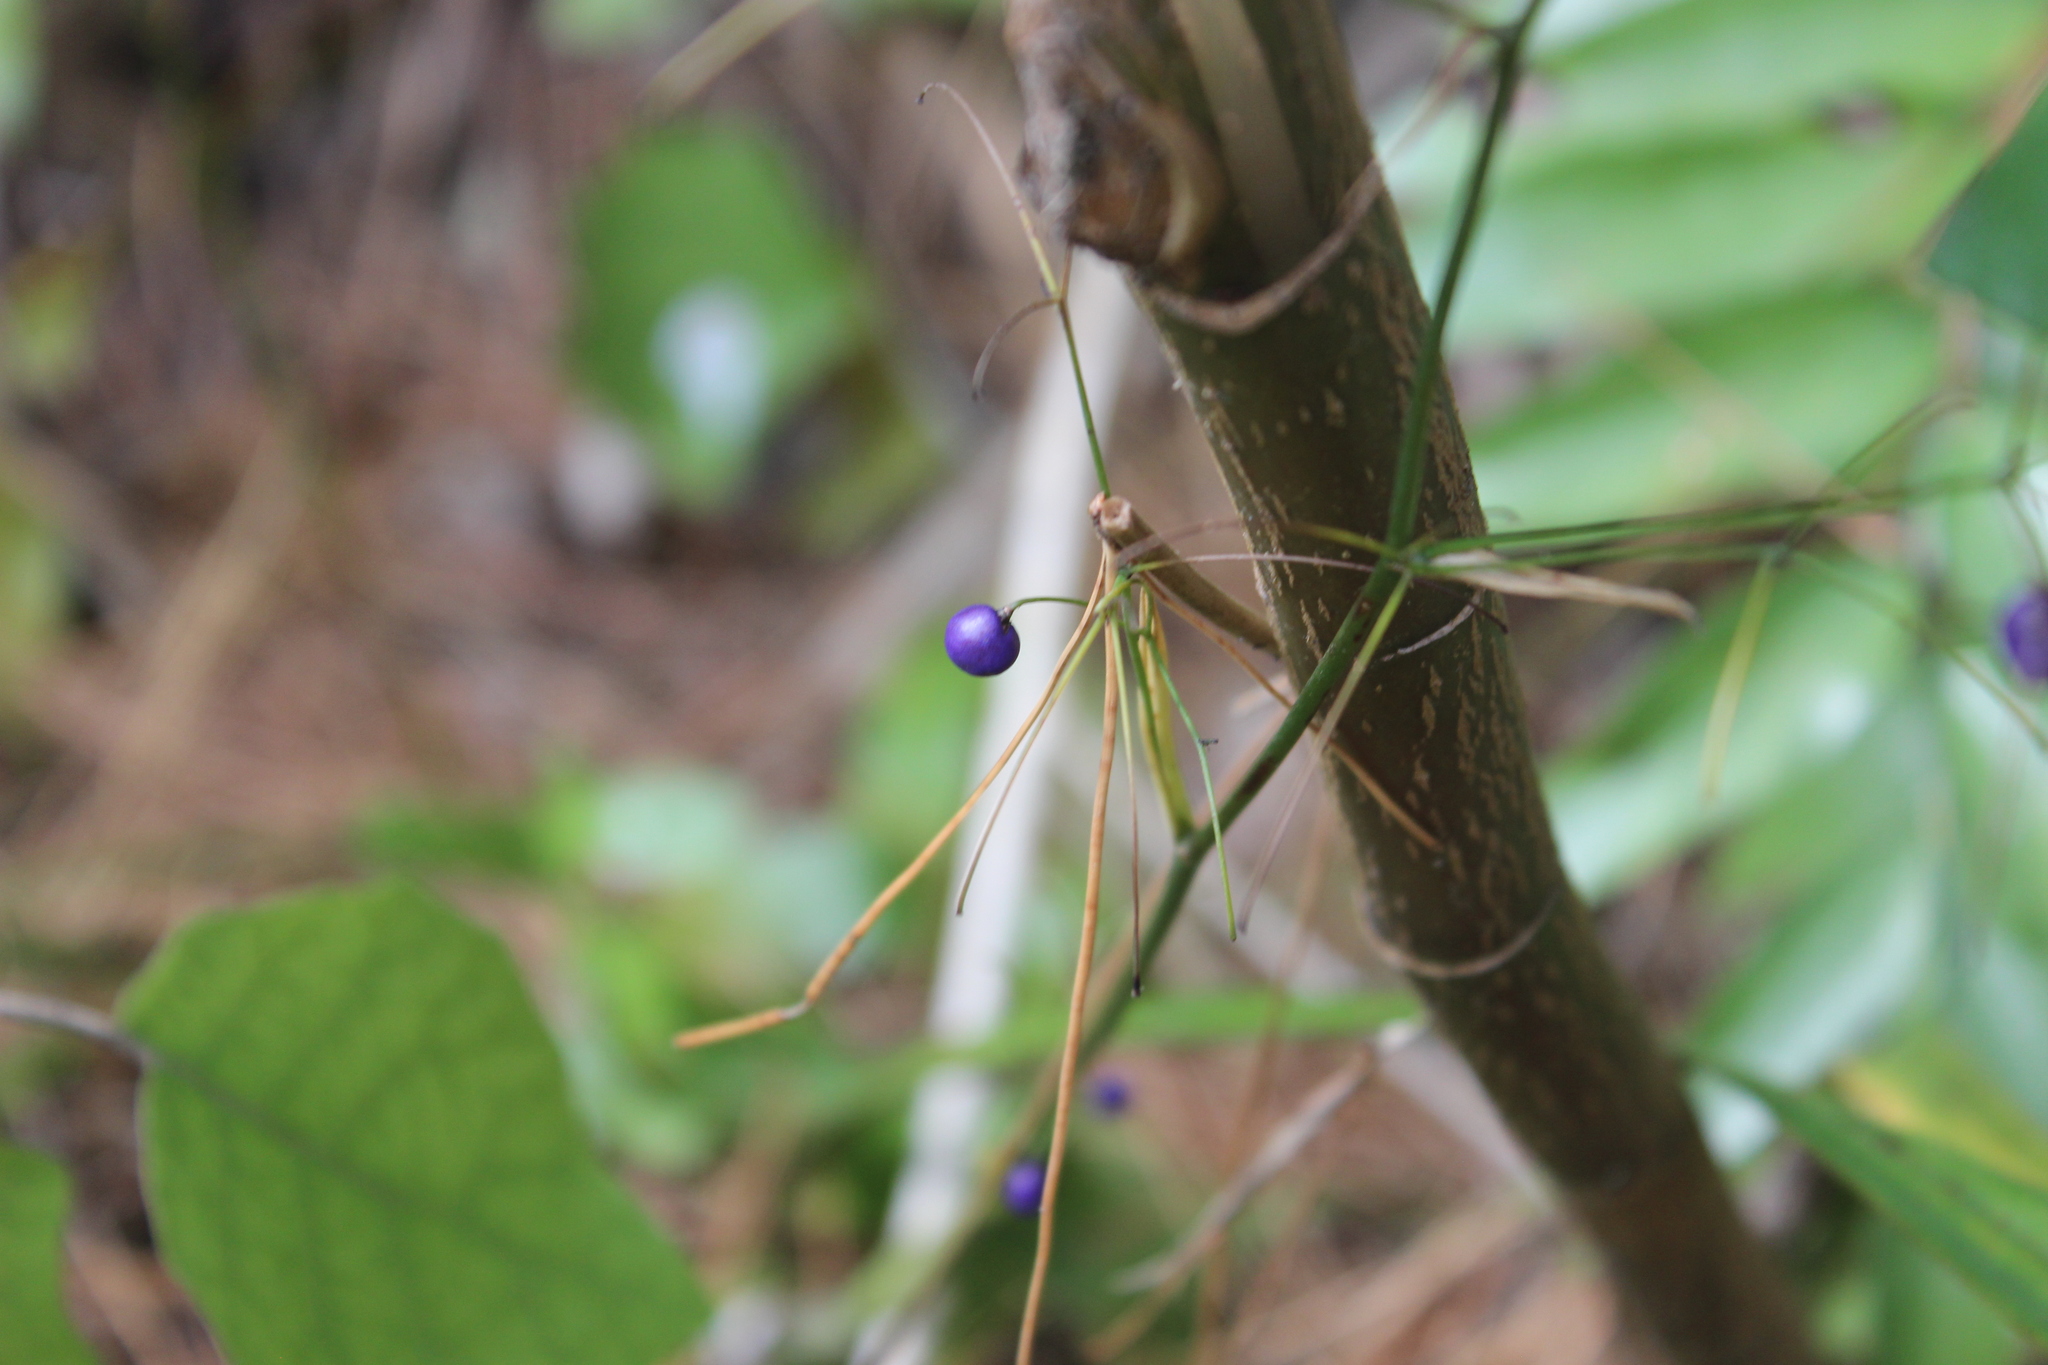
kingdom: Plantae
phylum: Tracheophyta
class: Liliopsida
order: Asparagales
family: Asphodelaceae
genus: Dianella
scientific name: Dianella nigra
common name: New zealand-blueberry
